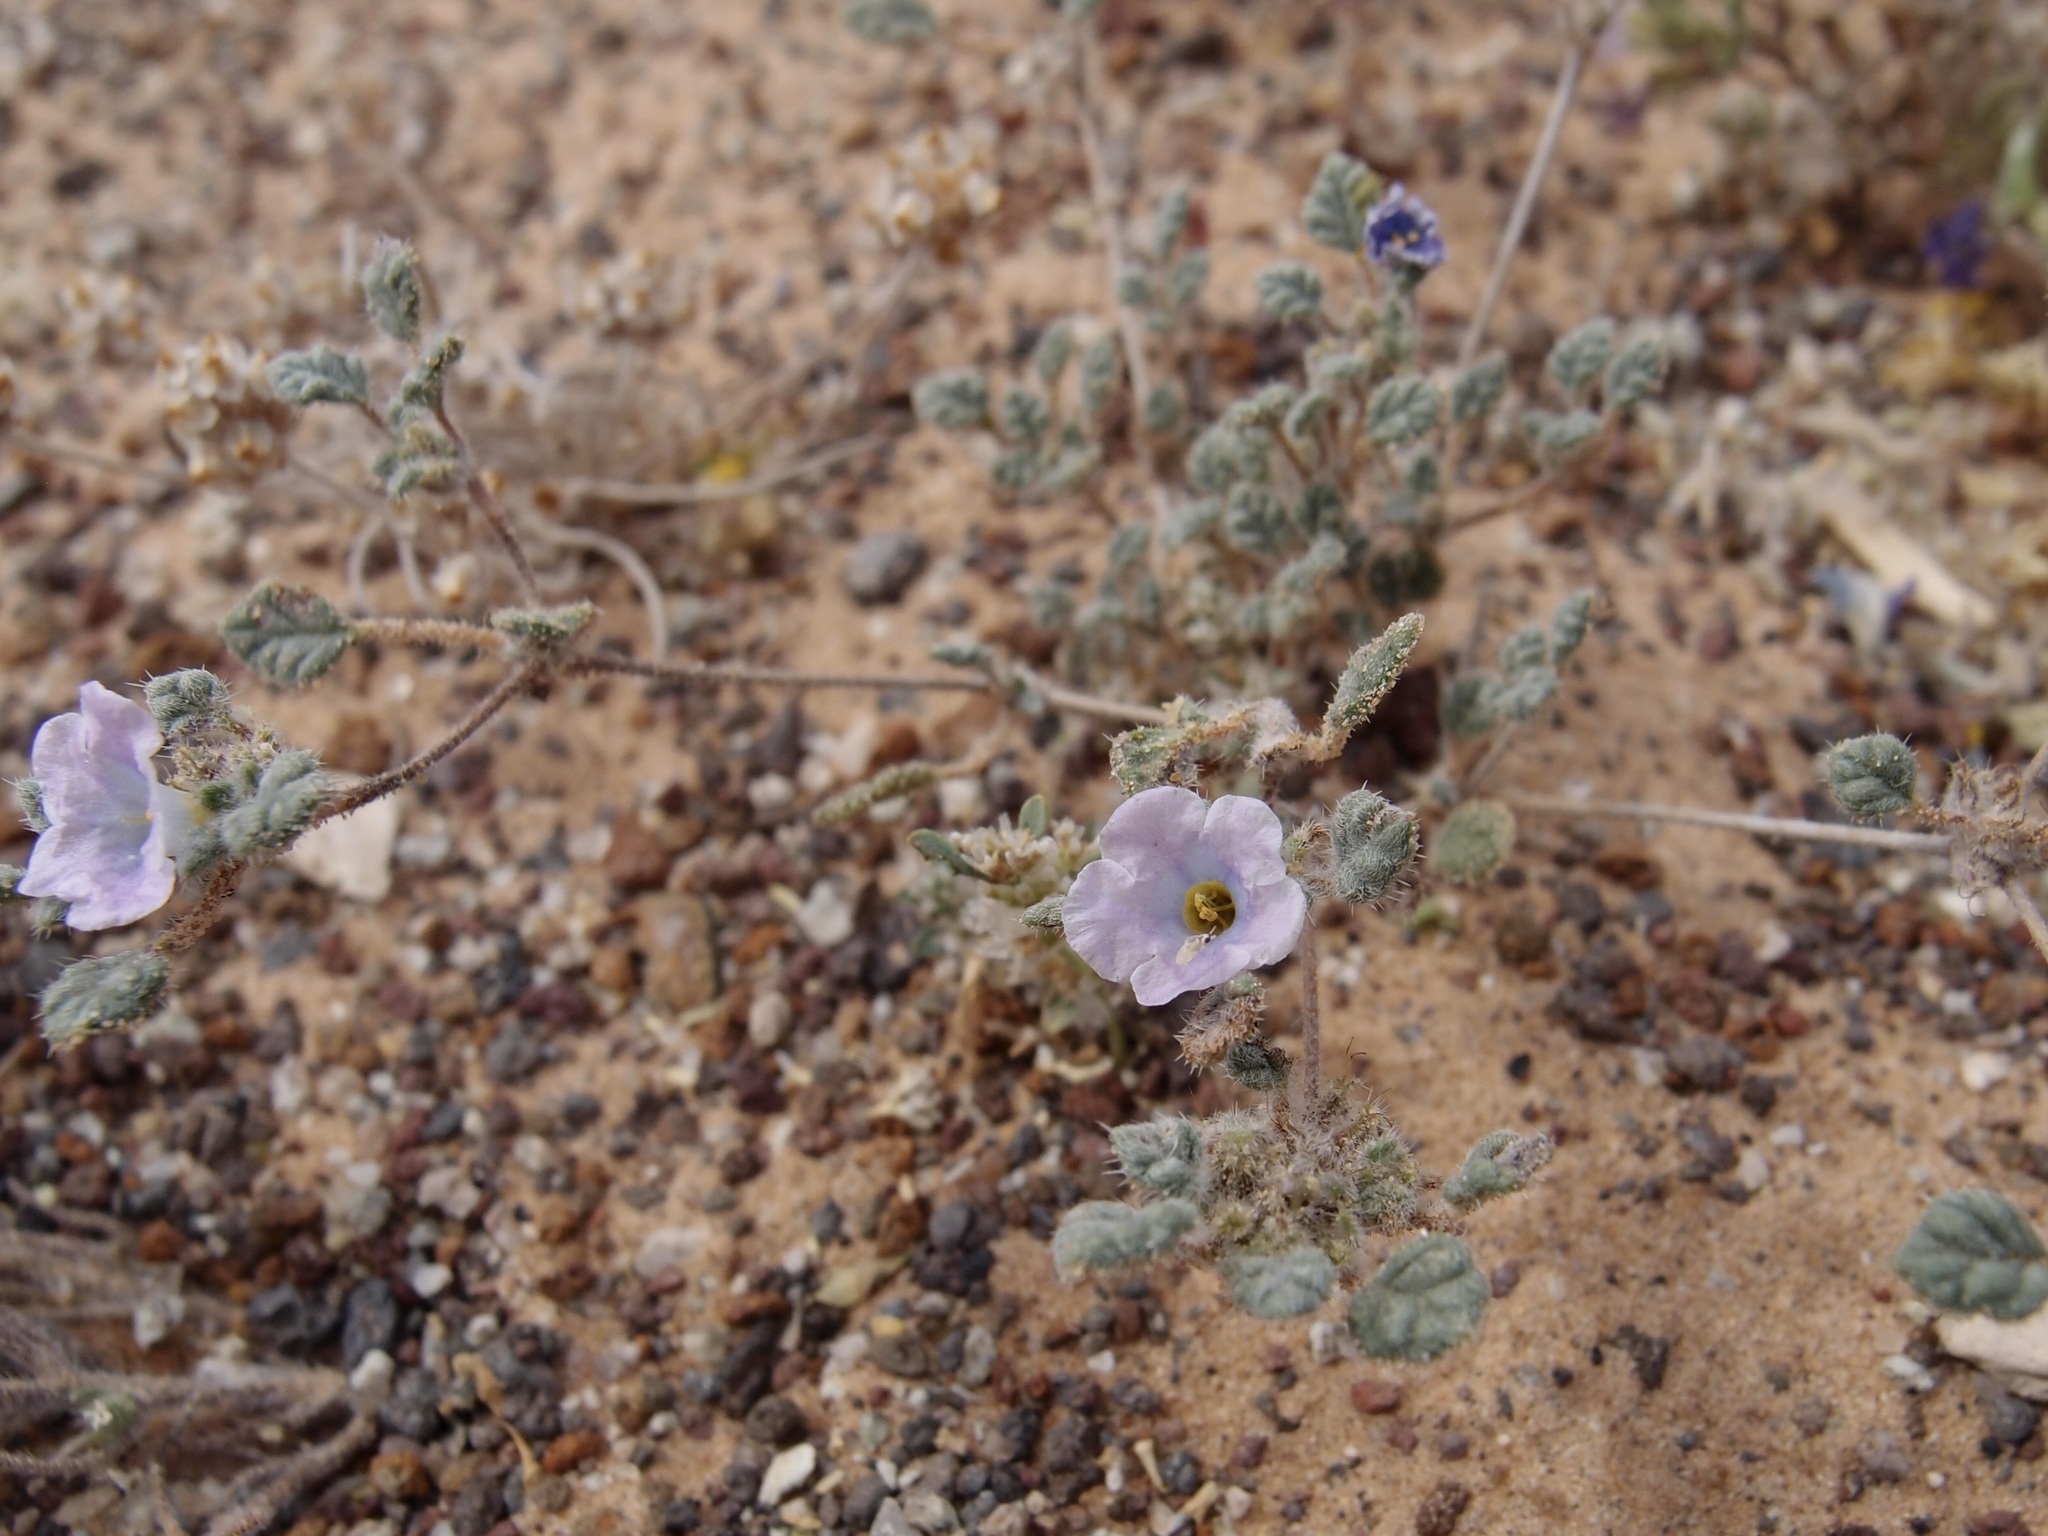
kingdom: Plantae
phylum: Tracheophyta
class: Magnoliopsida
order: Boraginales
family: Ehretiaceae
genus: Tiquilia
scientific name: Tiquilia palmeri
